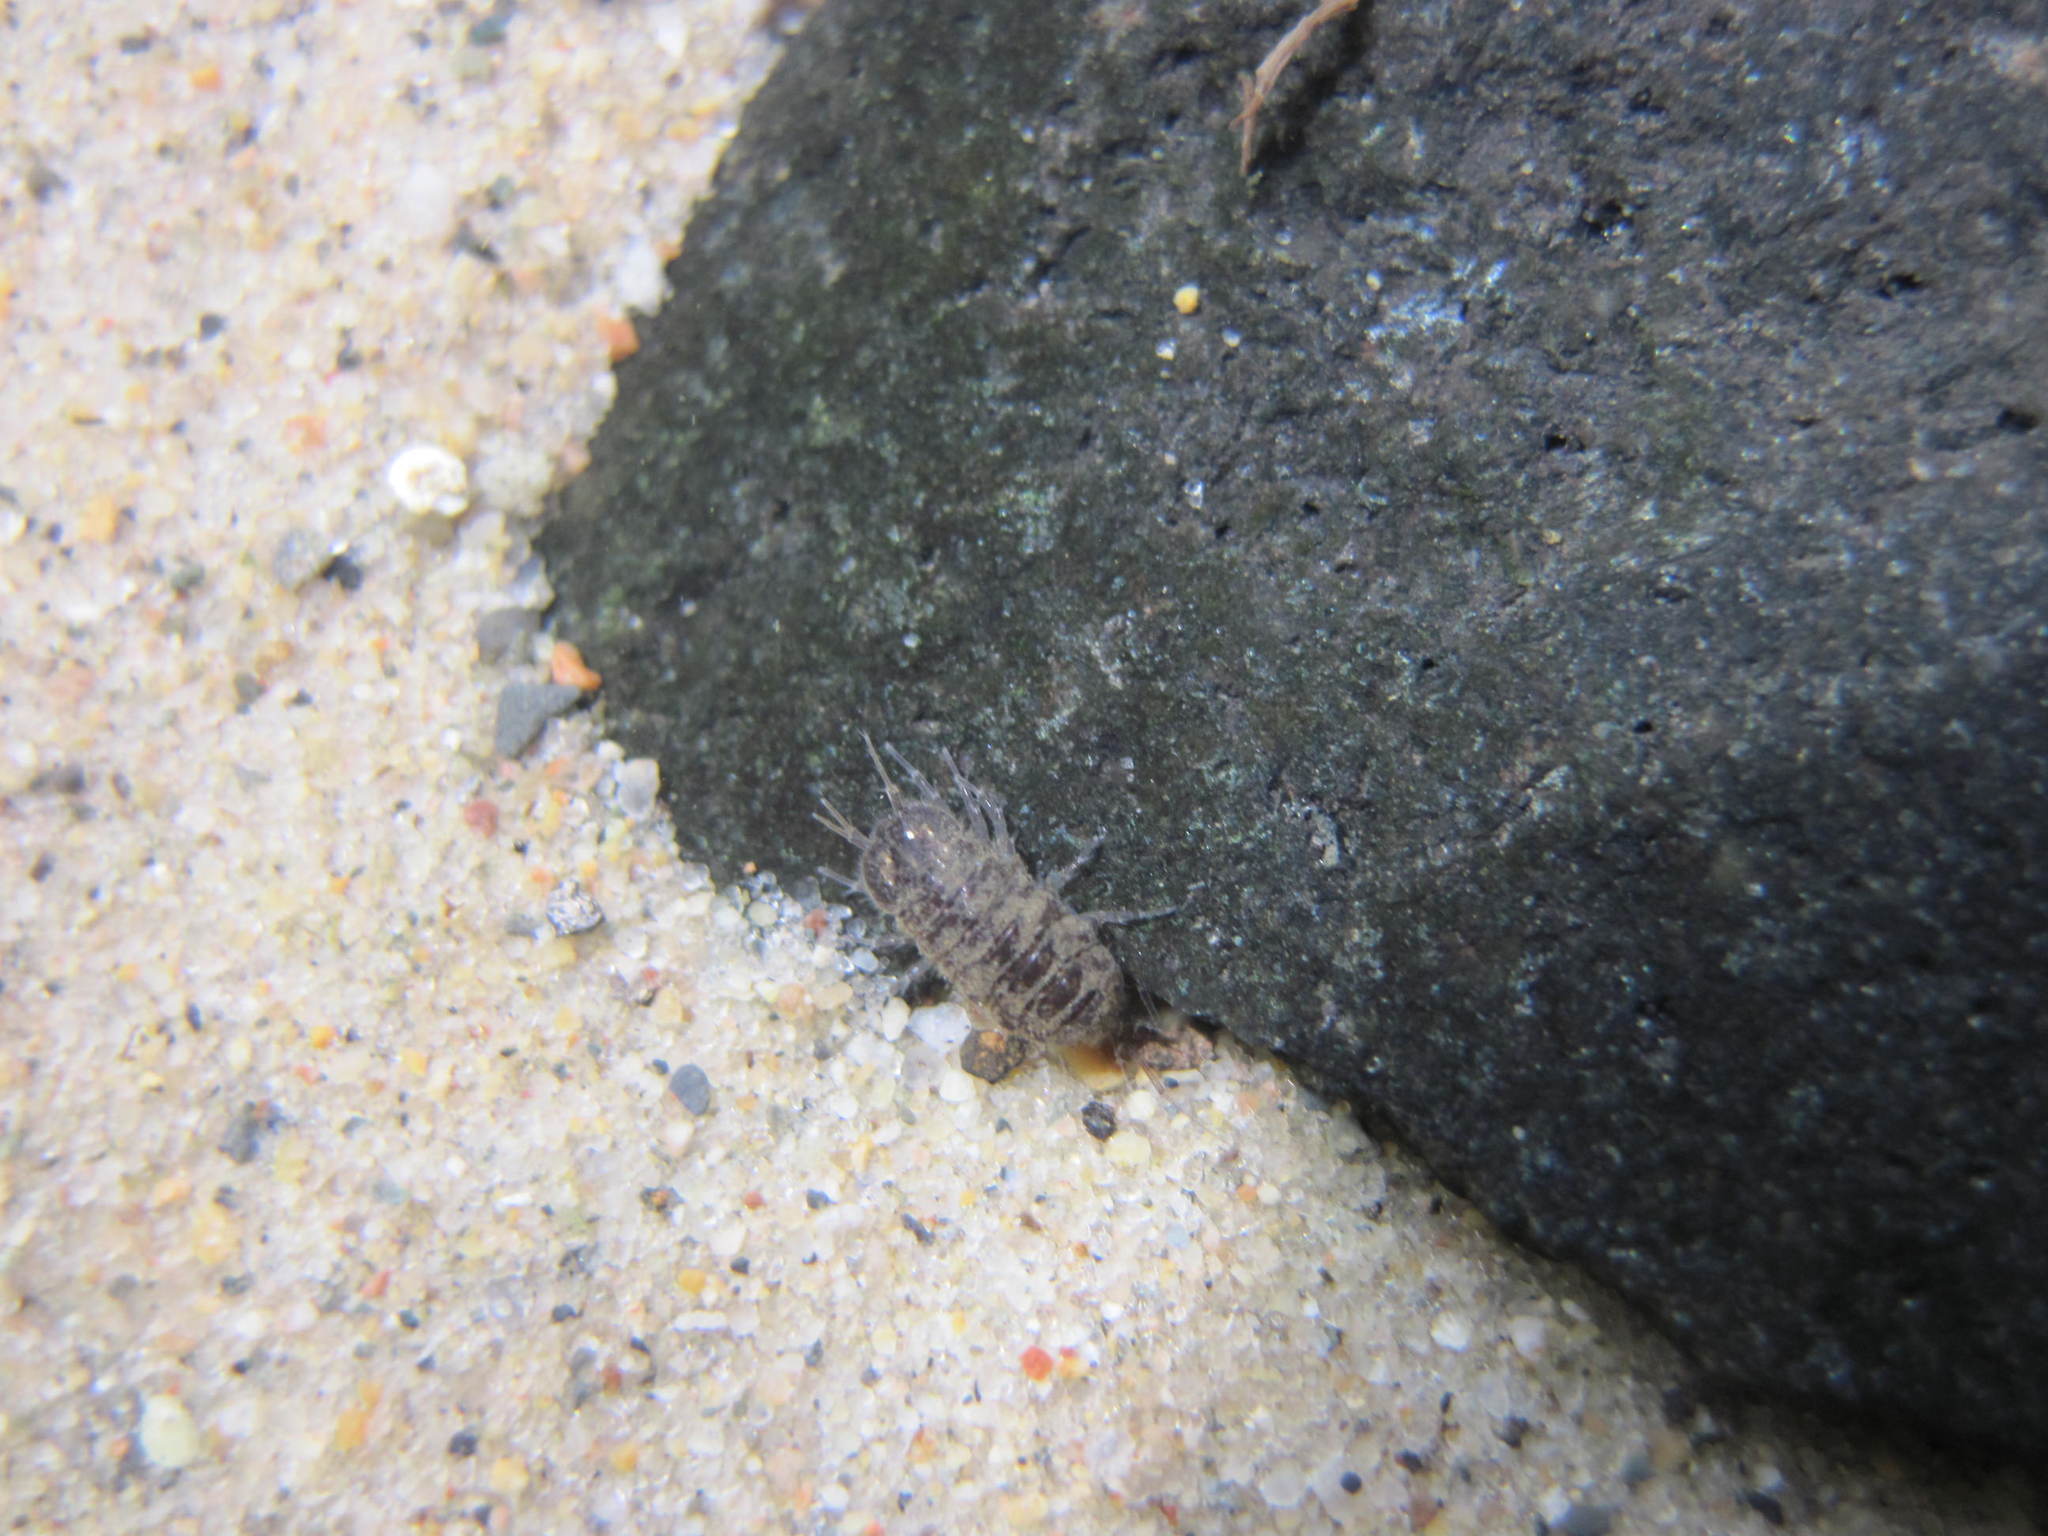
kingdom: Animalia
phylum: Arthropoda
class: Malacostraca
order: Isopoda
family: Asellidae
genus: Asellus
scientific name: Asellus aquaticus
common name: Water hog lice/slaters
